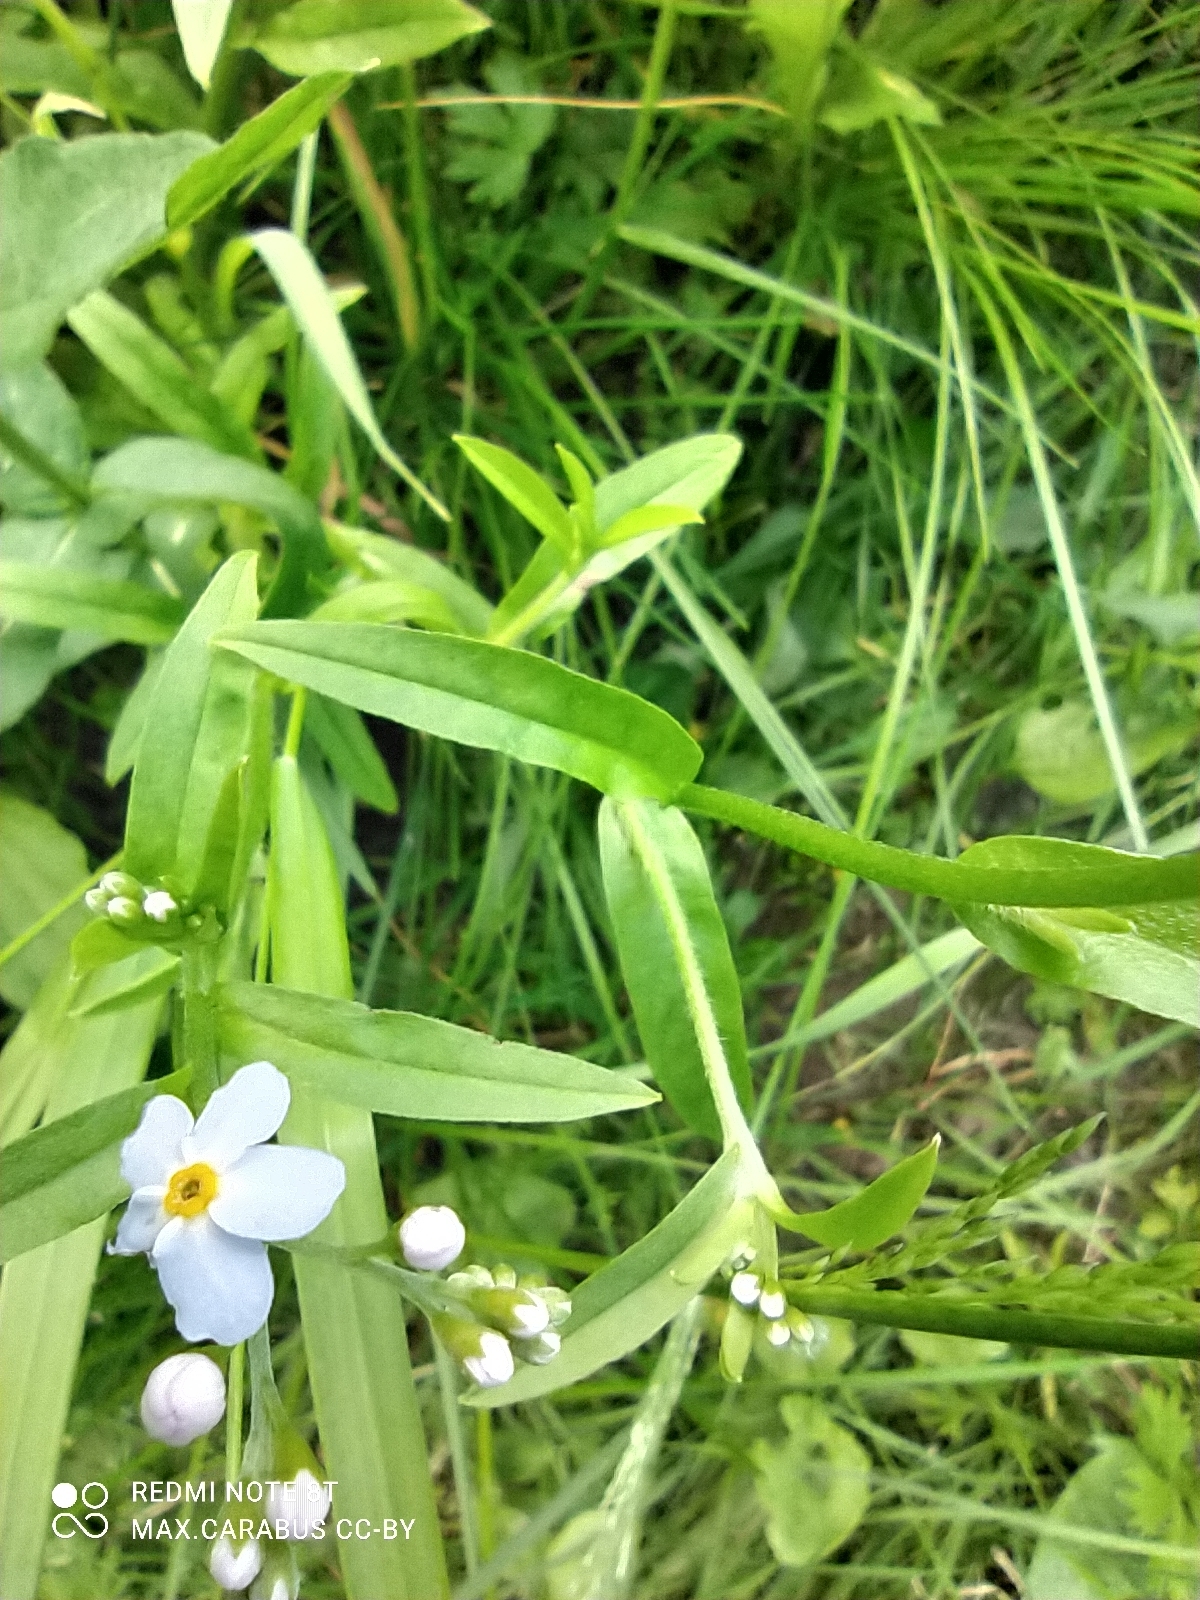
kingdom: Plantae
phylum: Tracheophyta
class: Magnoliopsida
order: Boraginales
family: Boraginaceae
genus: Myosotis
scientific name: Myosotis scorpioides
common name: Water forget-me-not
